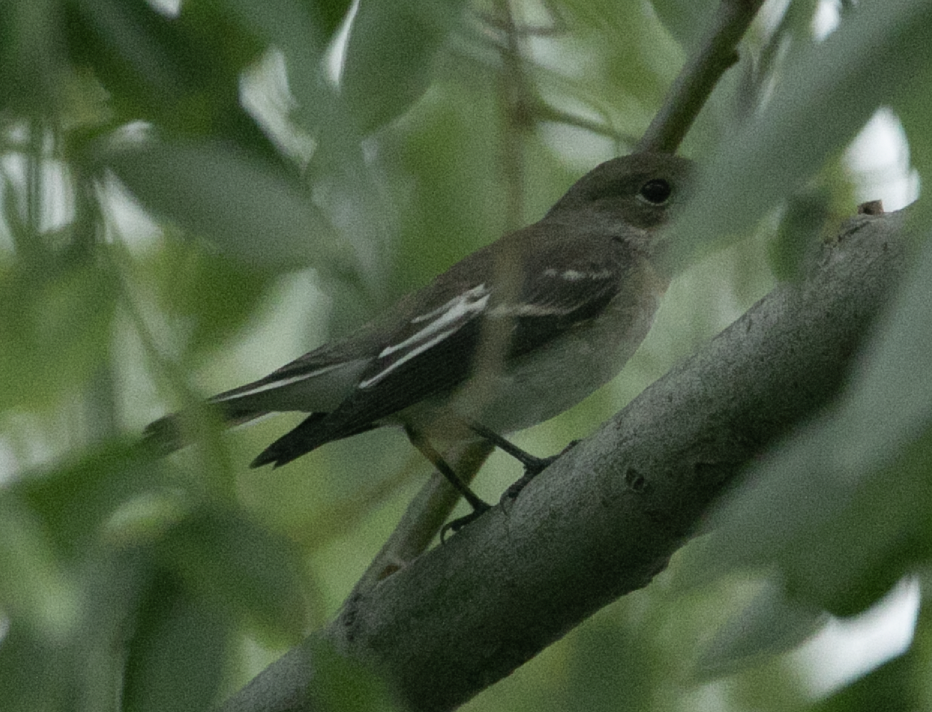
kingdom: Animalia
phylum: Chordata
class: Aves
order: Passeriformes
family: Muscicapidae
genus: Ficedula
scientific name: Ficedula hypoleuca
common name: European pied flycatcher
